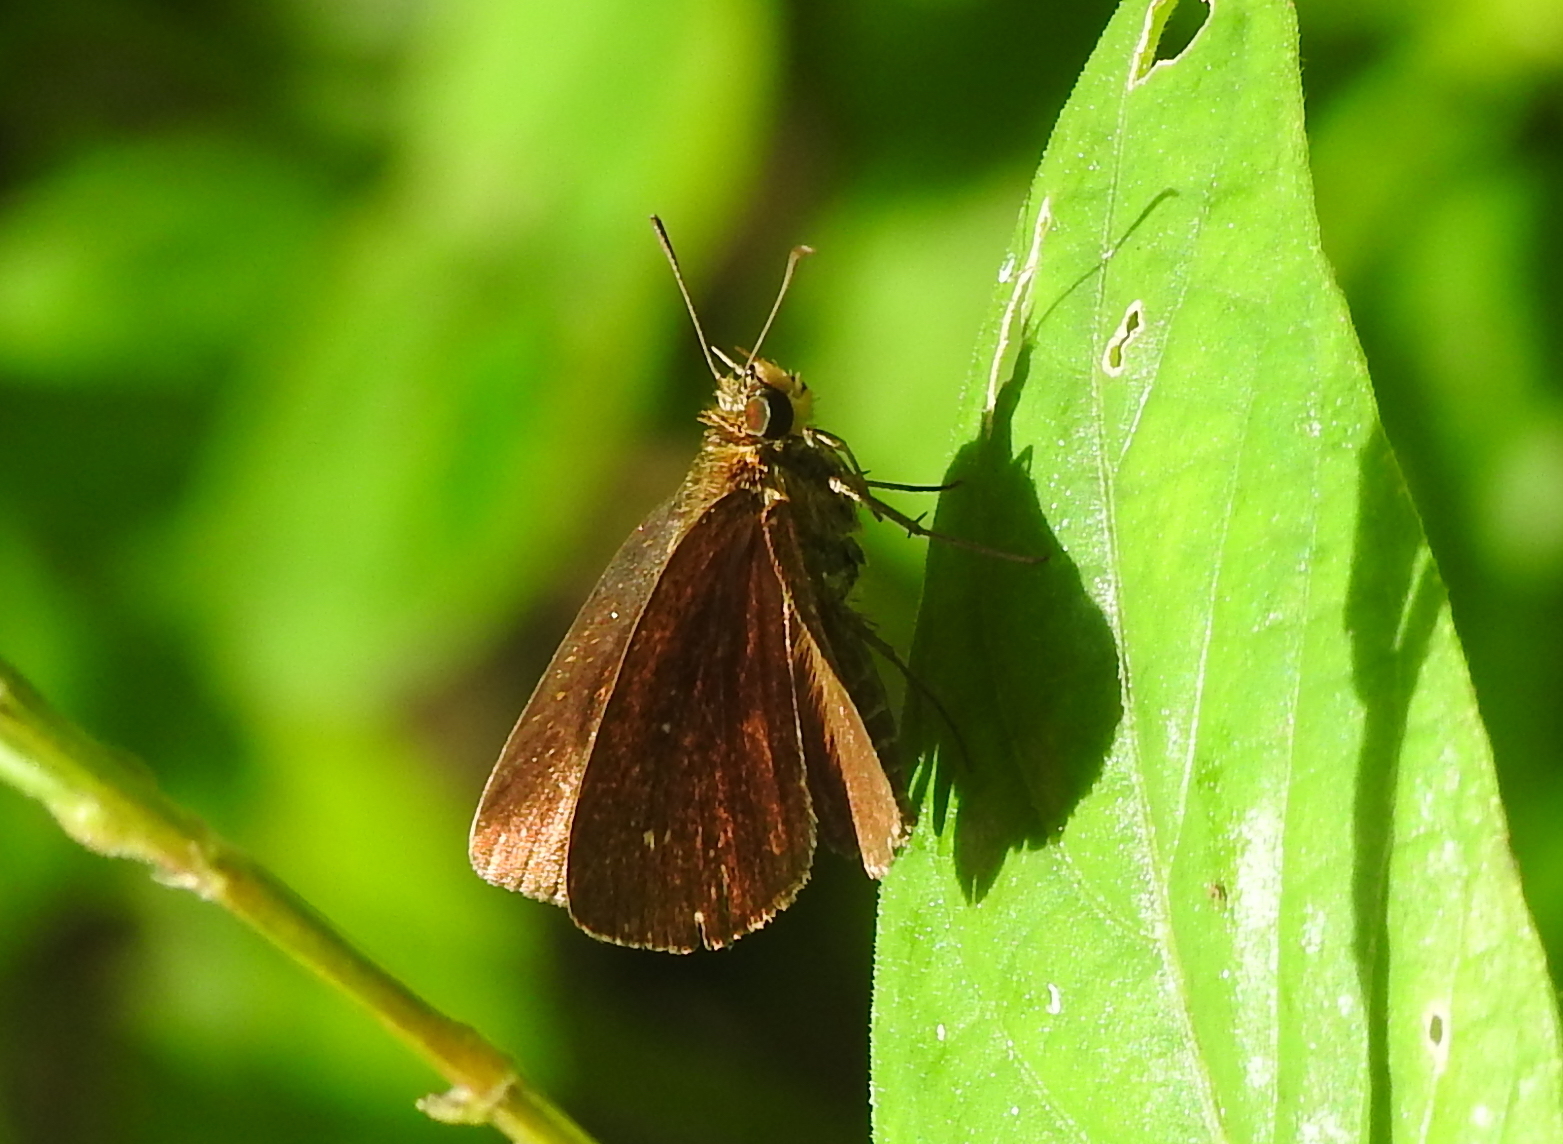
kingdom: Animalia
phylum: Arthropoda
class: Insecta
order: Lepidoptera
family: Hesperiidae
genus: Iambrix
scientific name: Iambrix salsala
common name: Chestnut bob
